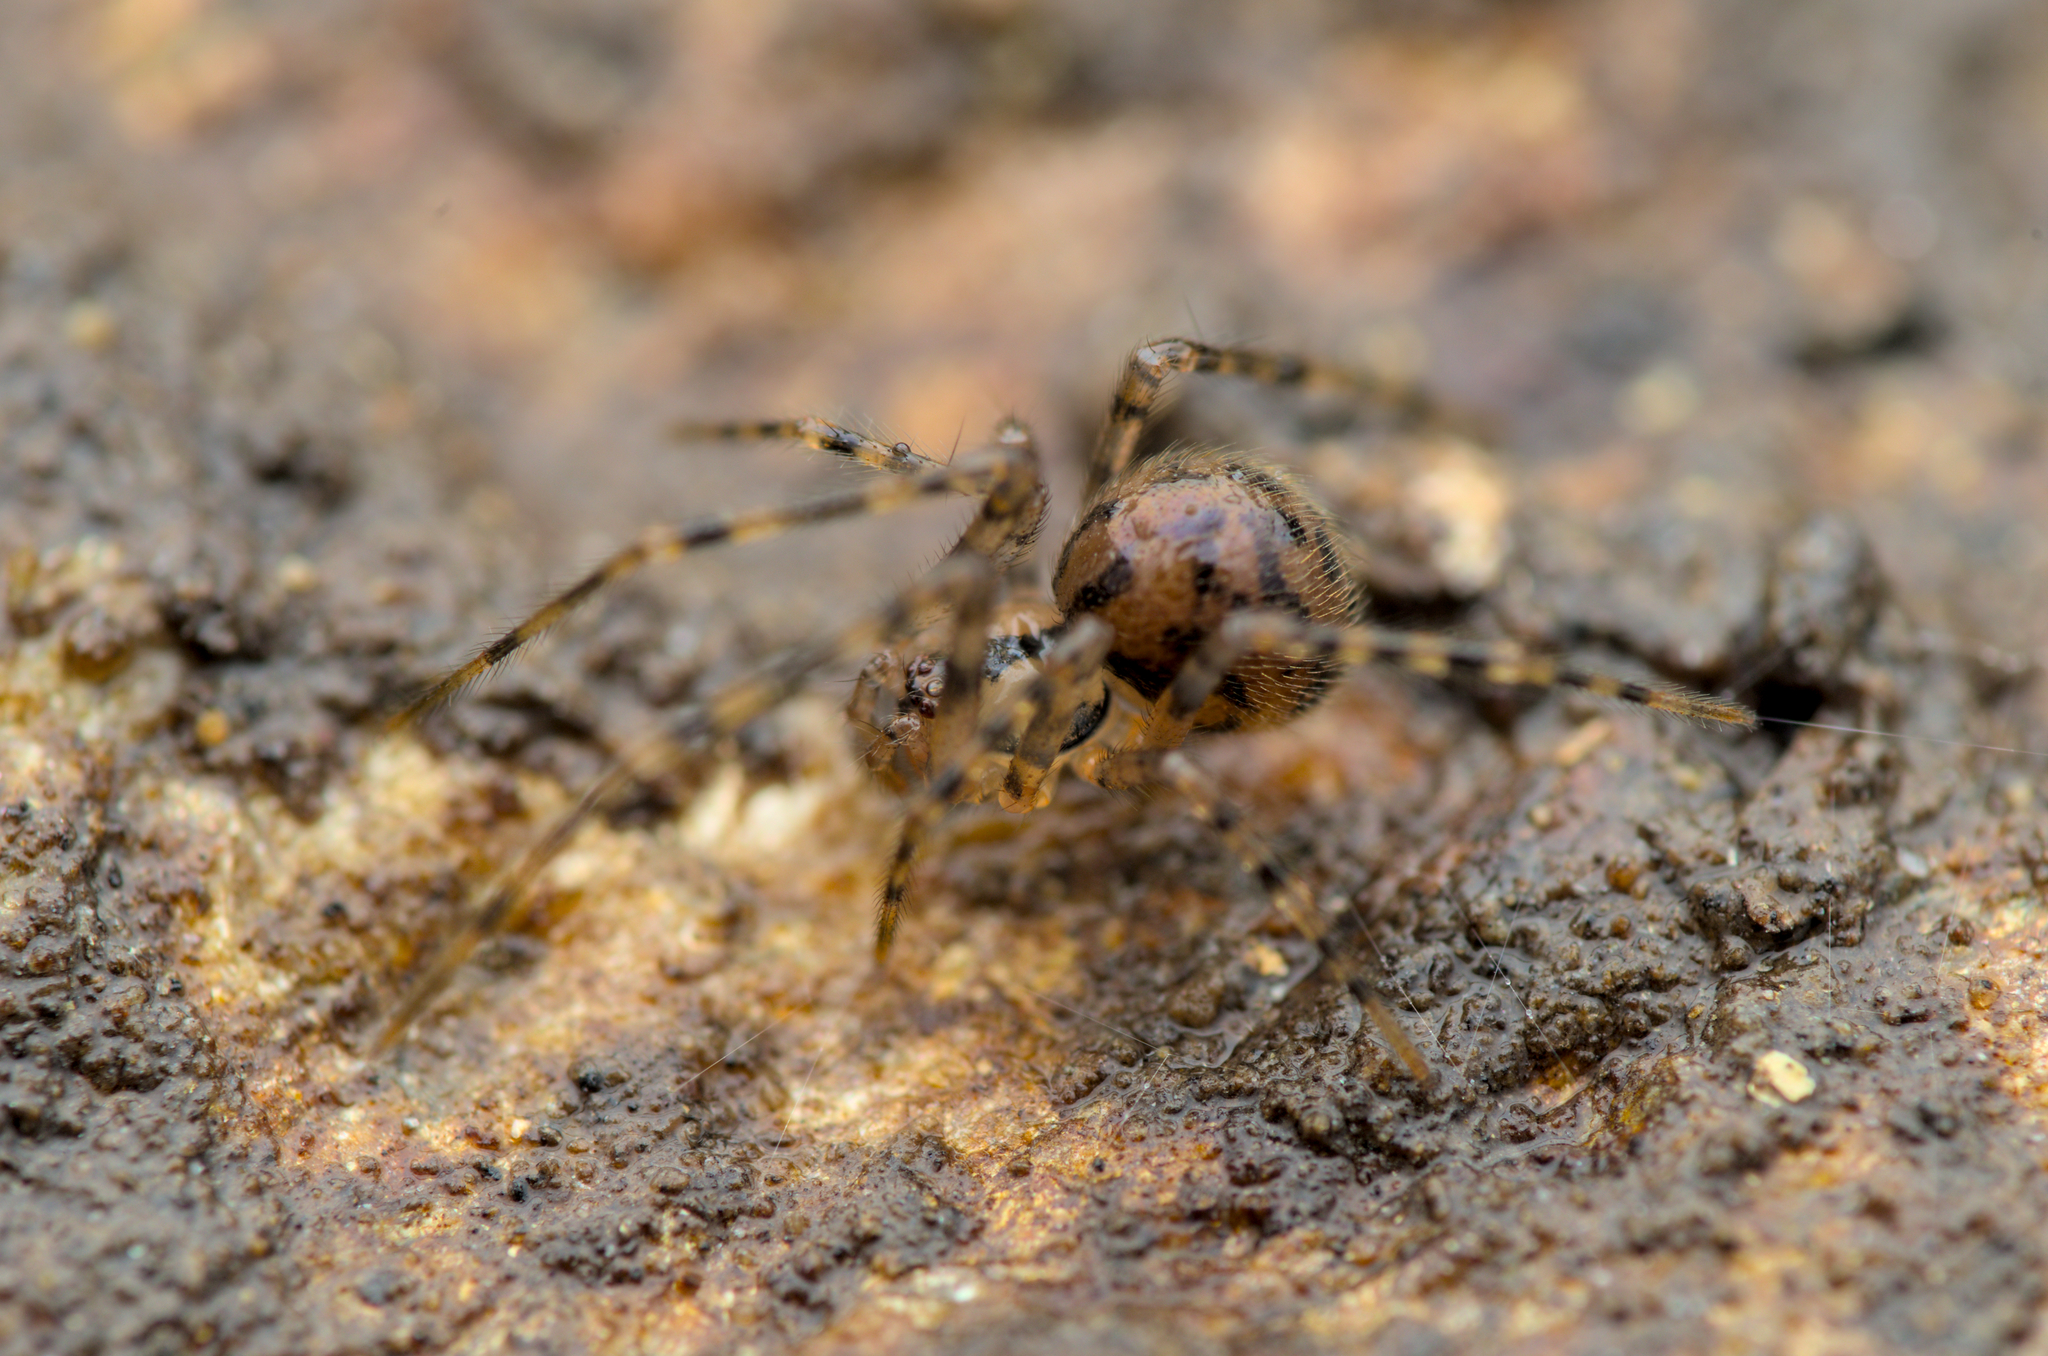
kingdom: Animalia
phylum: Arthropoda
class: Arachnida
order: Araneae
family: Nesticidae
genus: Nesticus
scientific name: Nesticus cellulanus
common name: Comb-footed cellar spider
